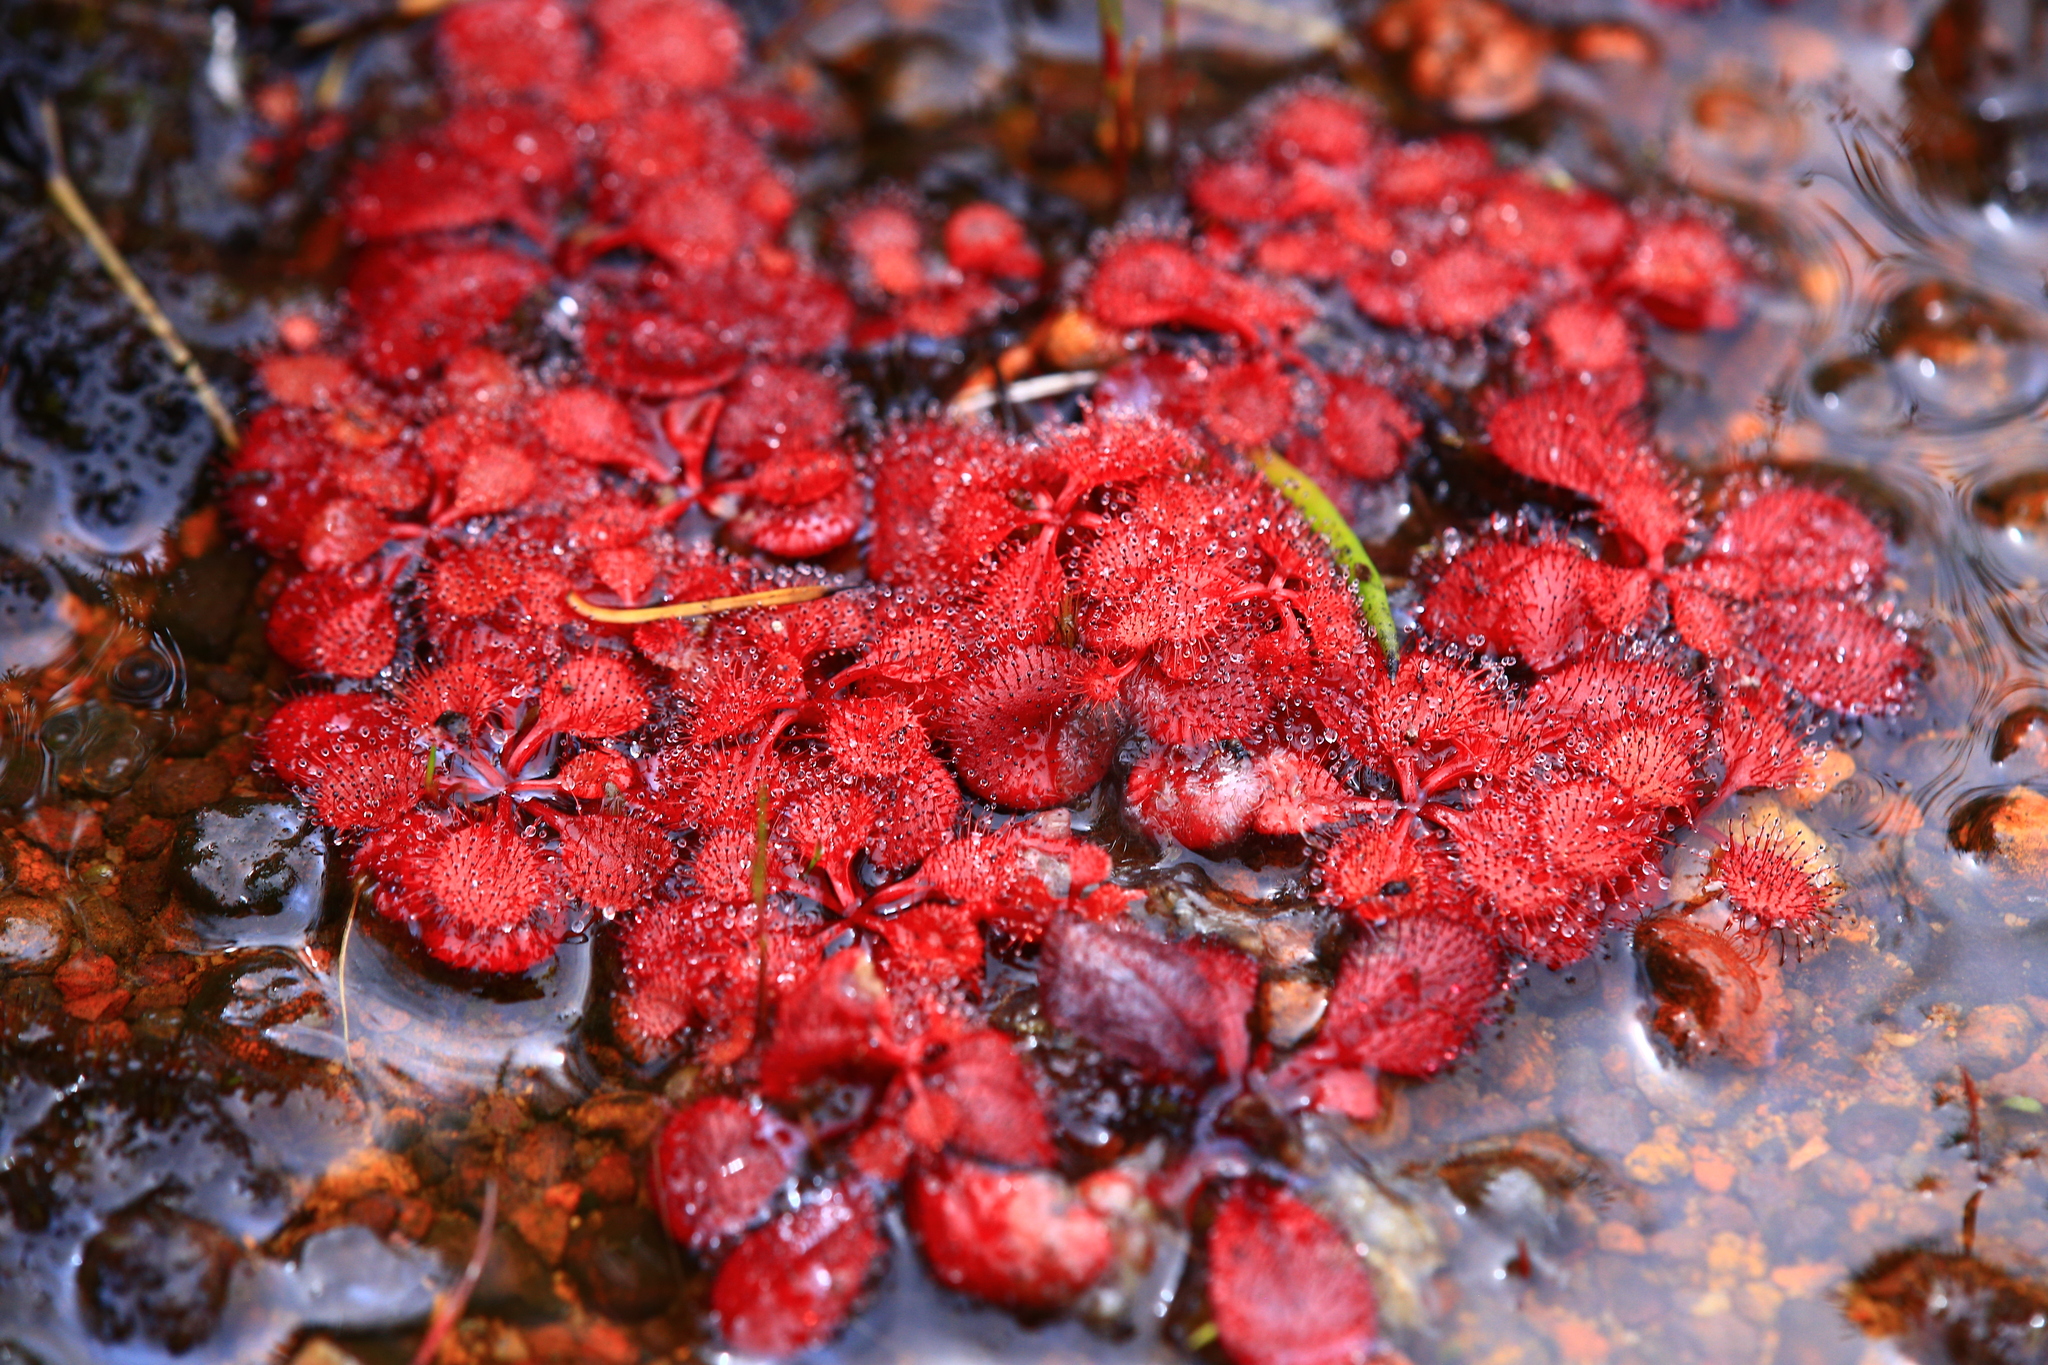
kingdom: Plantae
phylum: Tracheophyta
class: Magnoliopsida
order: Caryophyllales
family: Droseraceae
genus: Drosera
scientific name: Drosera rosulata
